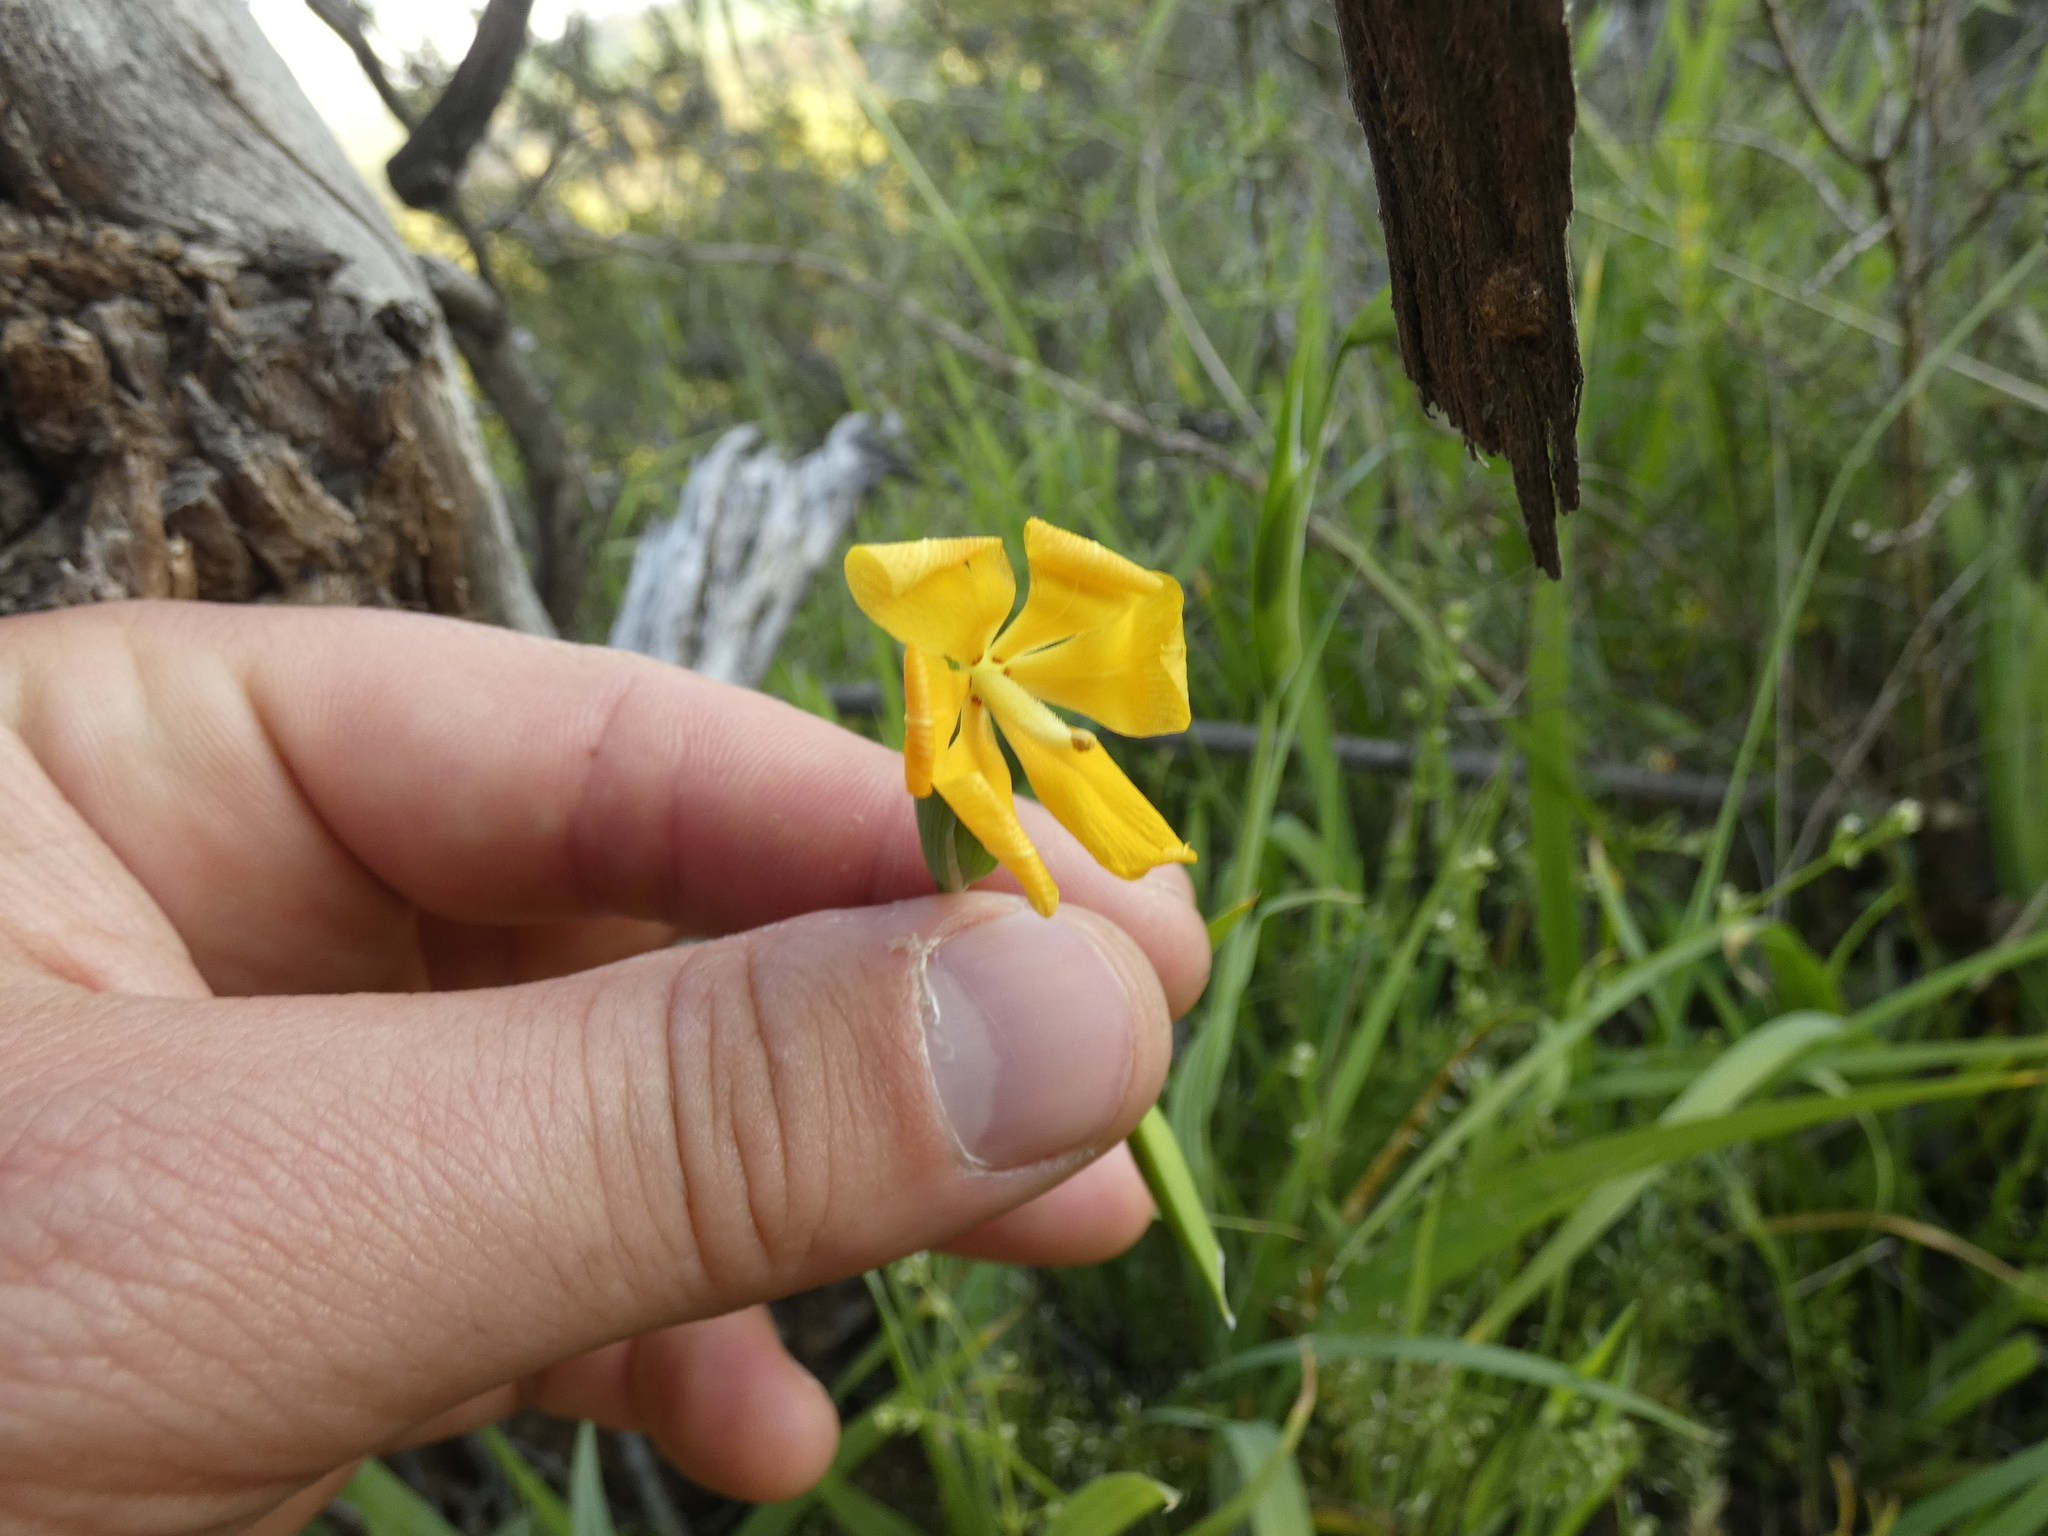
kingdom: Plantae
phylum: Tracheophyta
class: Liliopsida
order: Asparagales
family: Iridaceae
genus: Solenomelus
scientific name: Solenomelus pedunculatus
